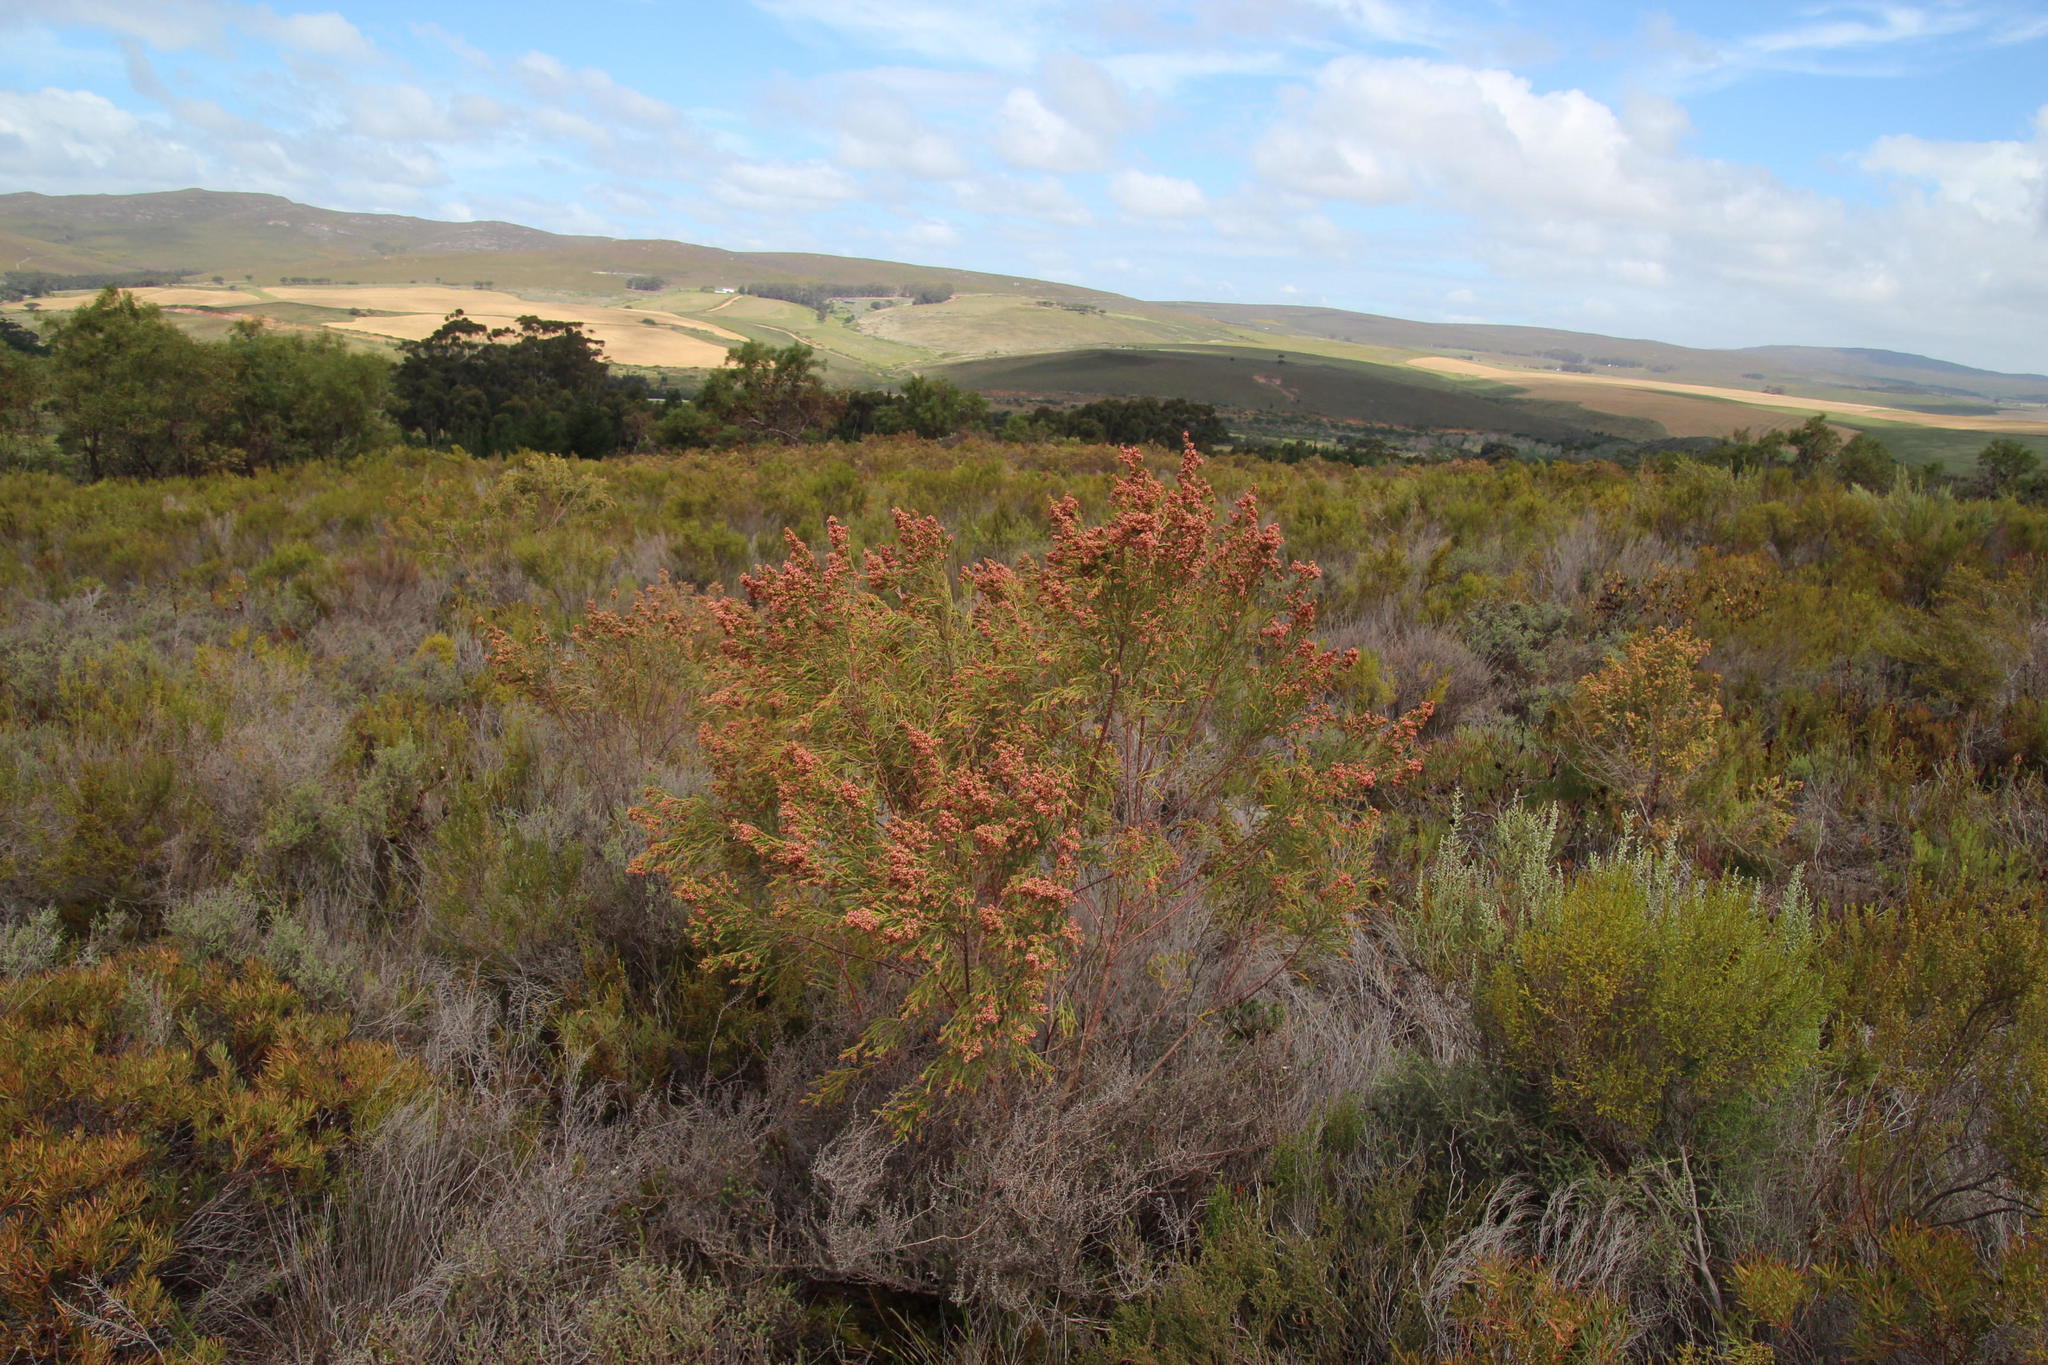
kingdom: Plantae
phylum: Tracheophyta
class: Magnoliopsida
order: Malvales
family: Thymelaeaceae
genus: Passerina
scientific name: Passerina corymbosa
